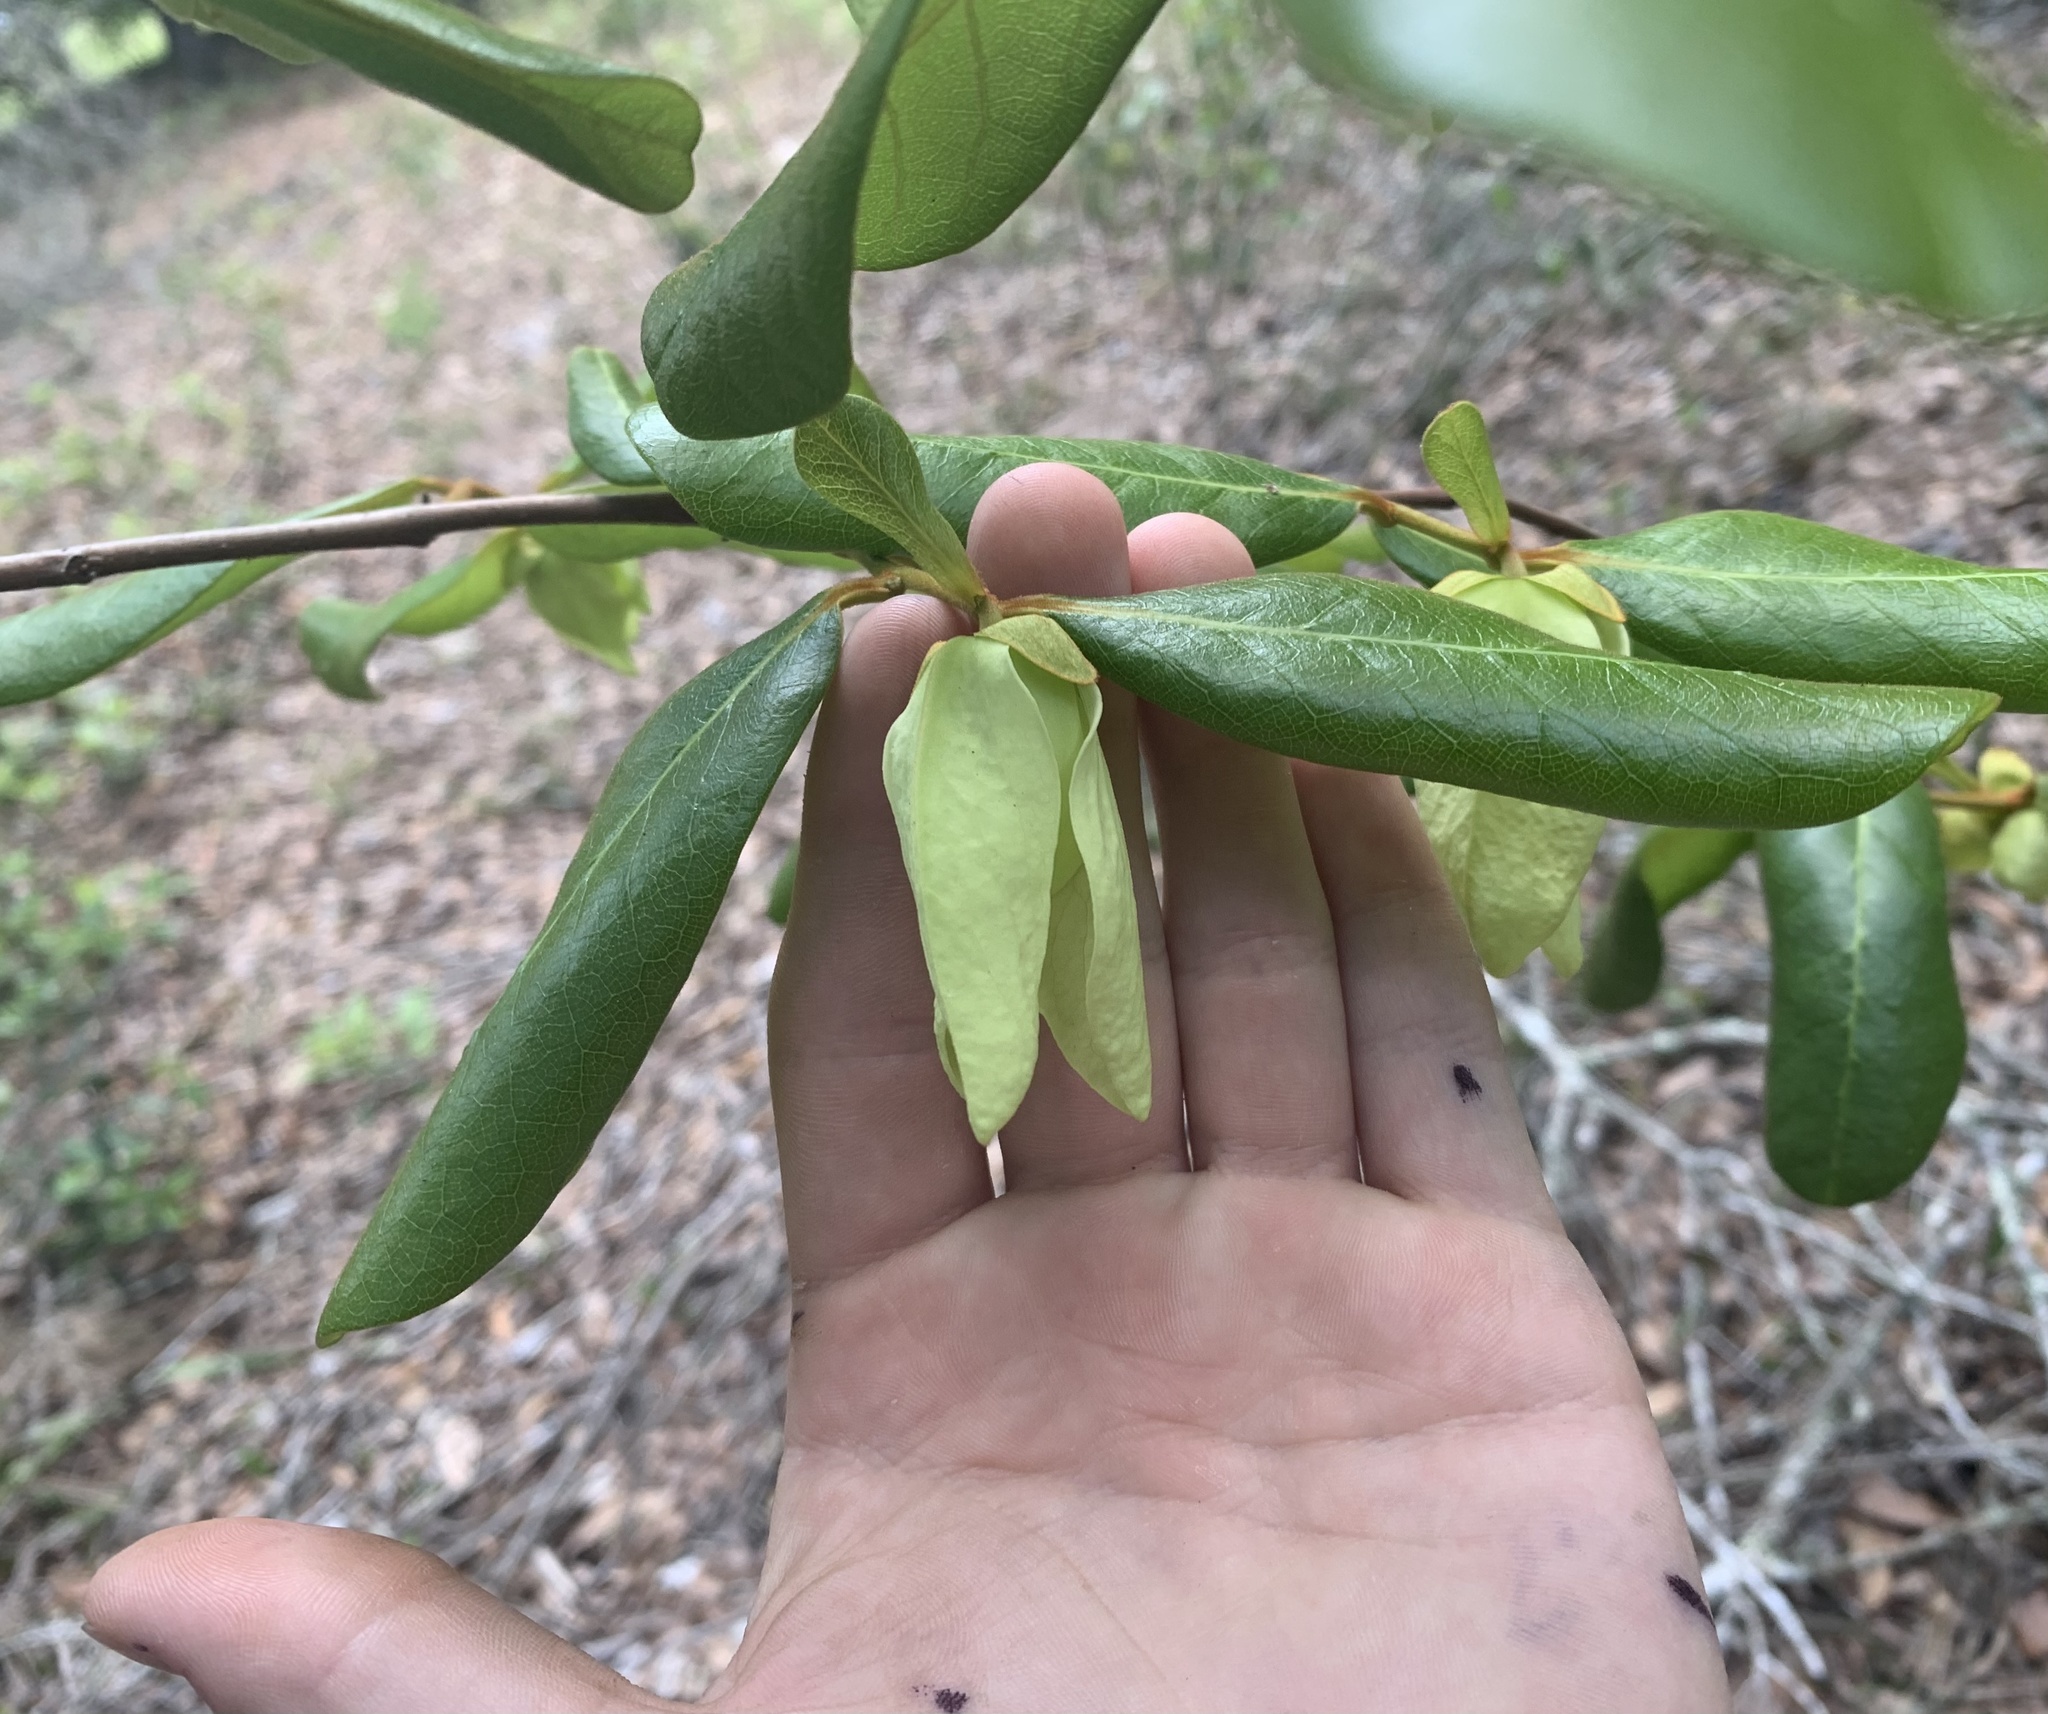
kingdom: Plantae
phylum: Tracheophyta
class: Magnoliopsida
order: Magnoliales
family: Annonaceae
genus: Asimina
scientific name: Asimina obovata
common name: Flag pawpaw
